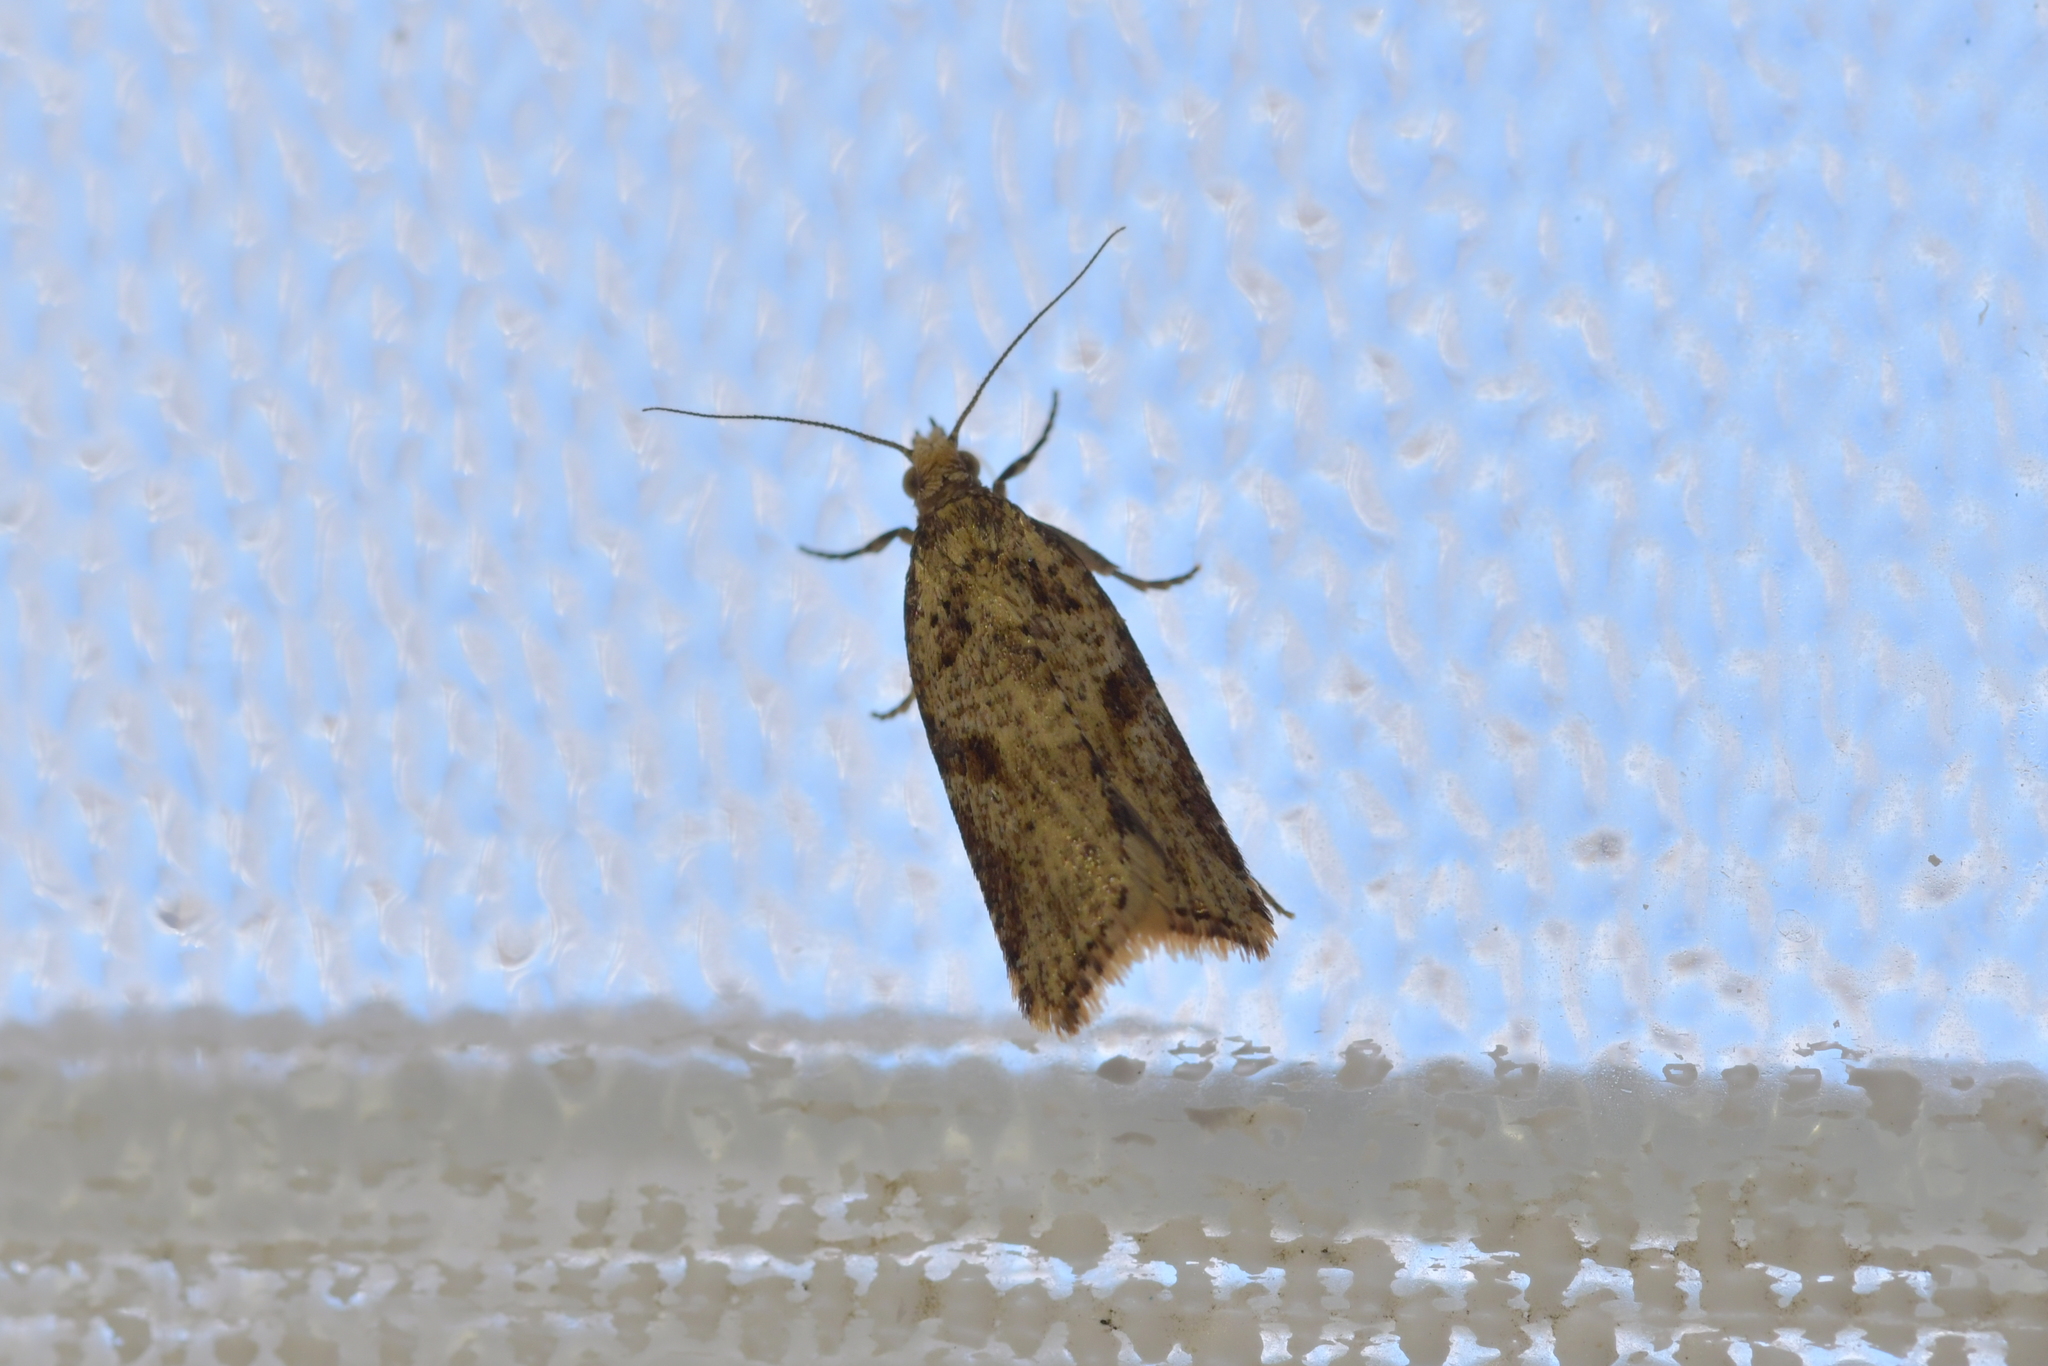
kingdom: Animalia
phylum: Arthropoda
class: Insecta
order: Lepidoptera
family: Tortricidae
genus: Capua
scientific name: Capua semiferana
